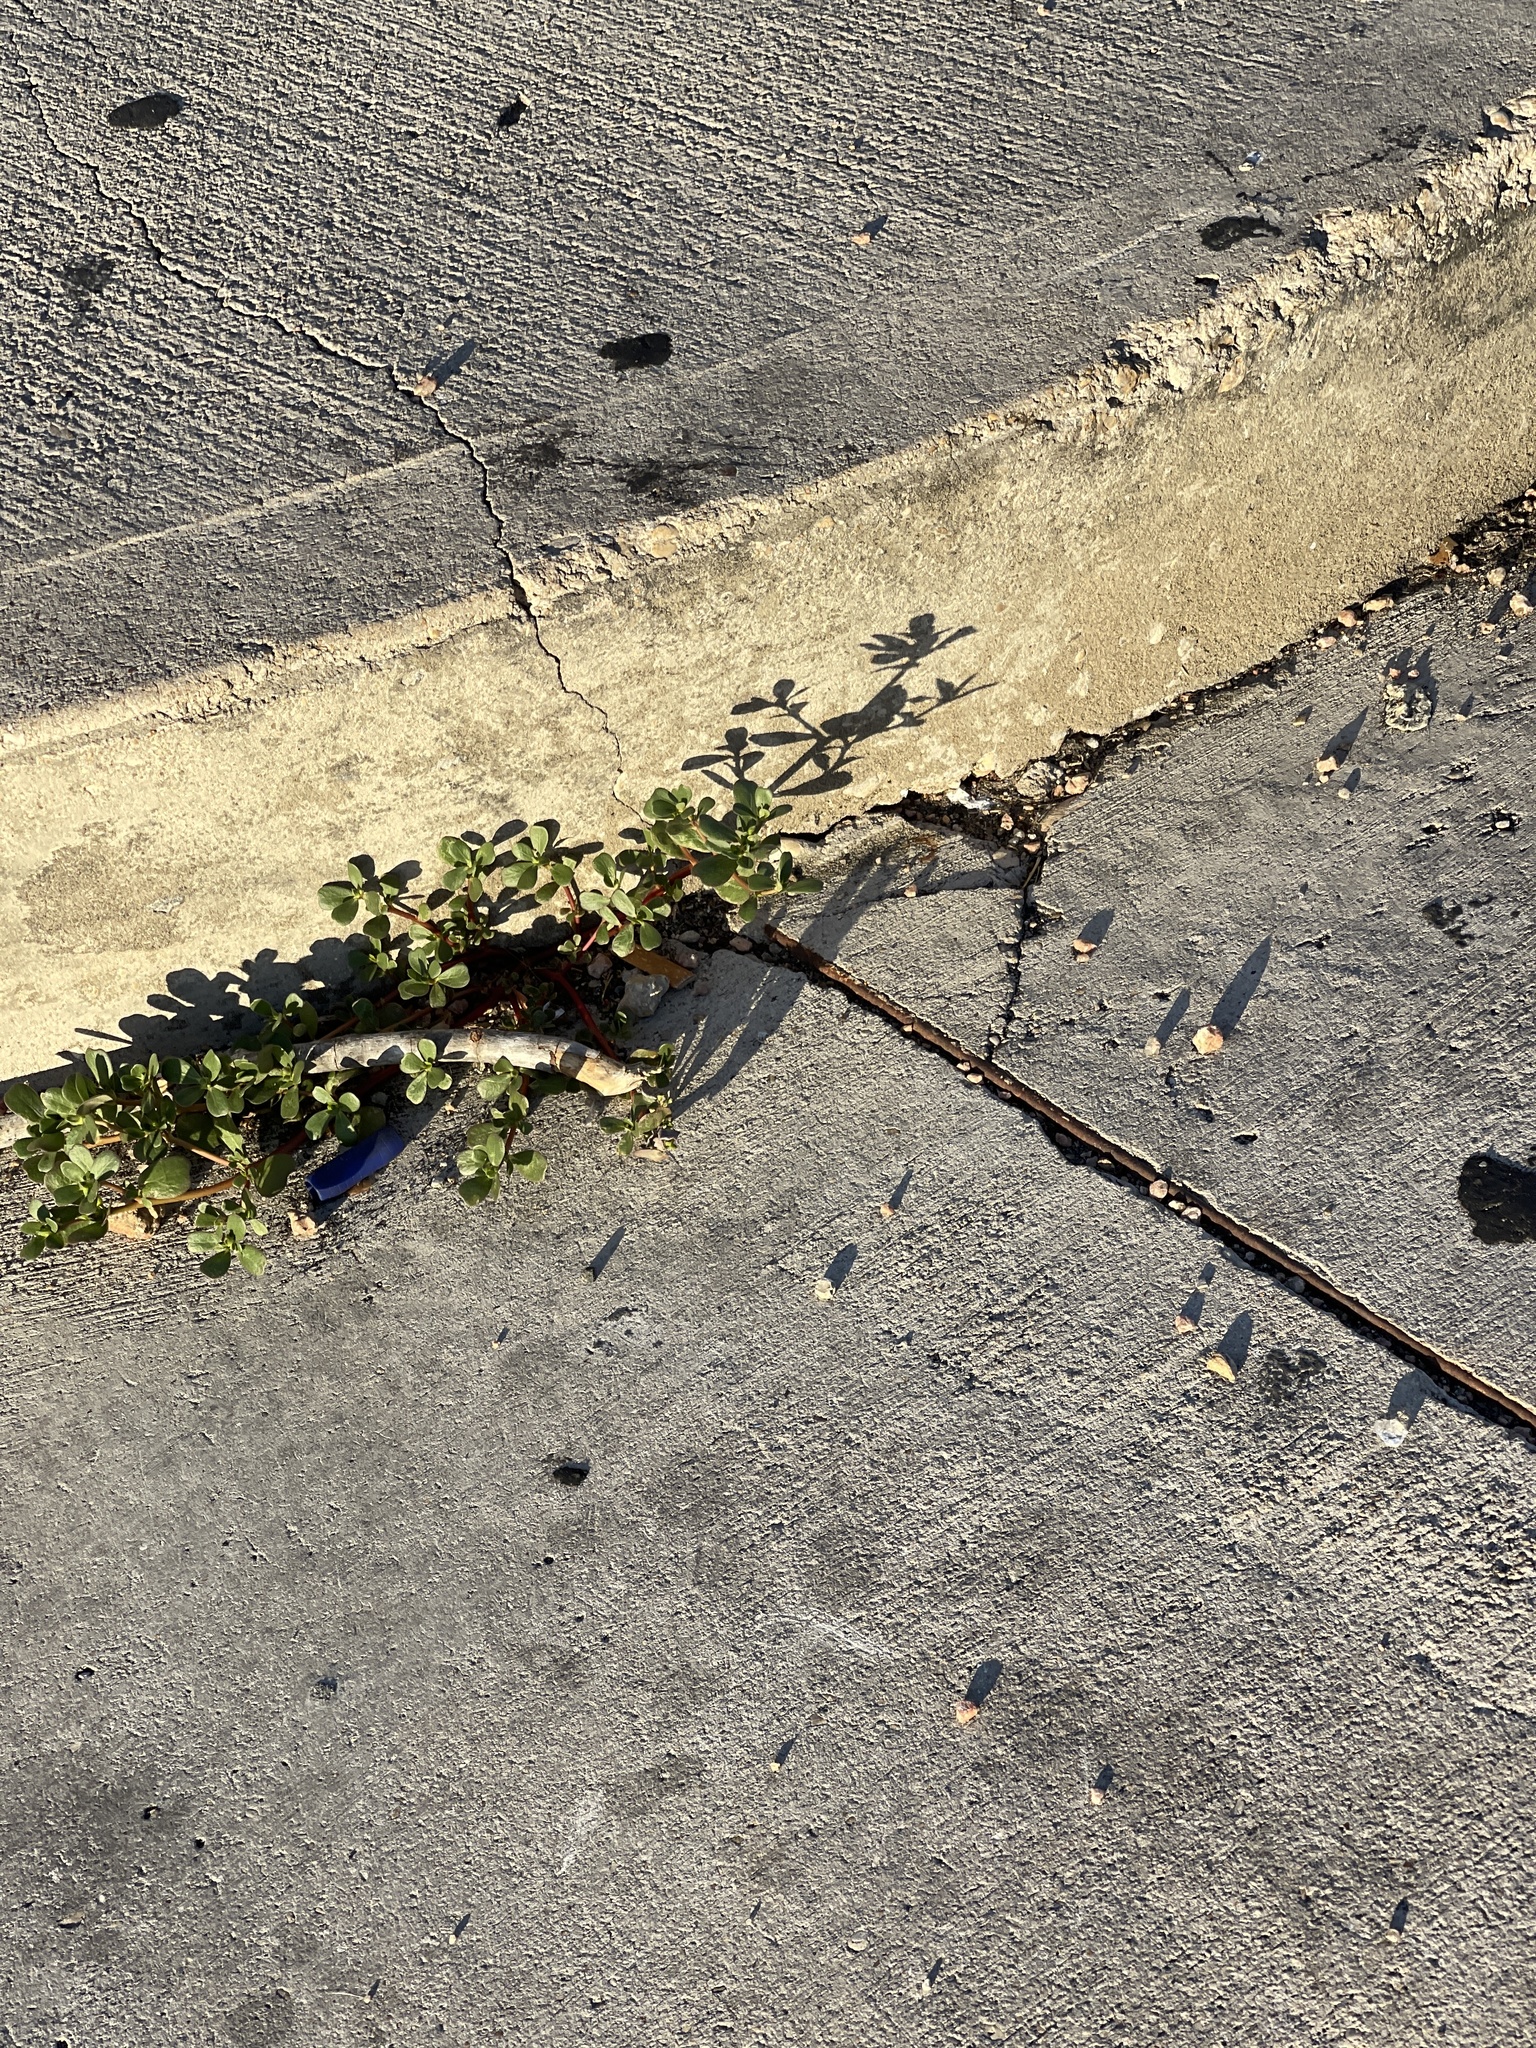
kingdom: Plantae
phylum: Tracheophyta
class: Magnoliopsida
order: Caryophyllales
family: Portulacaceae
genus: Portulaca
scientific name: Portulaca oleracea
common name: Common purslane
